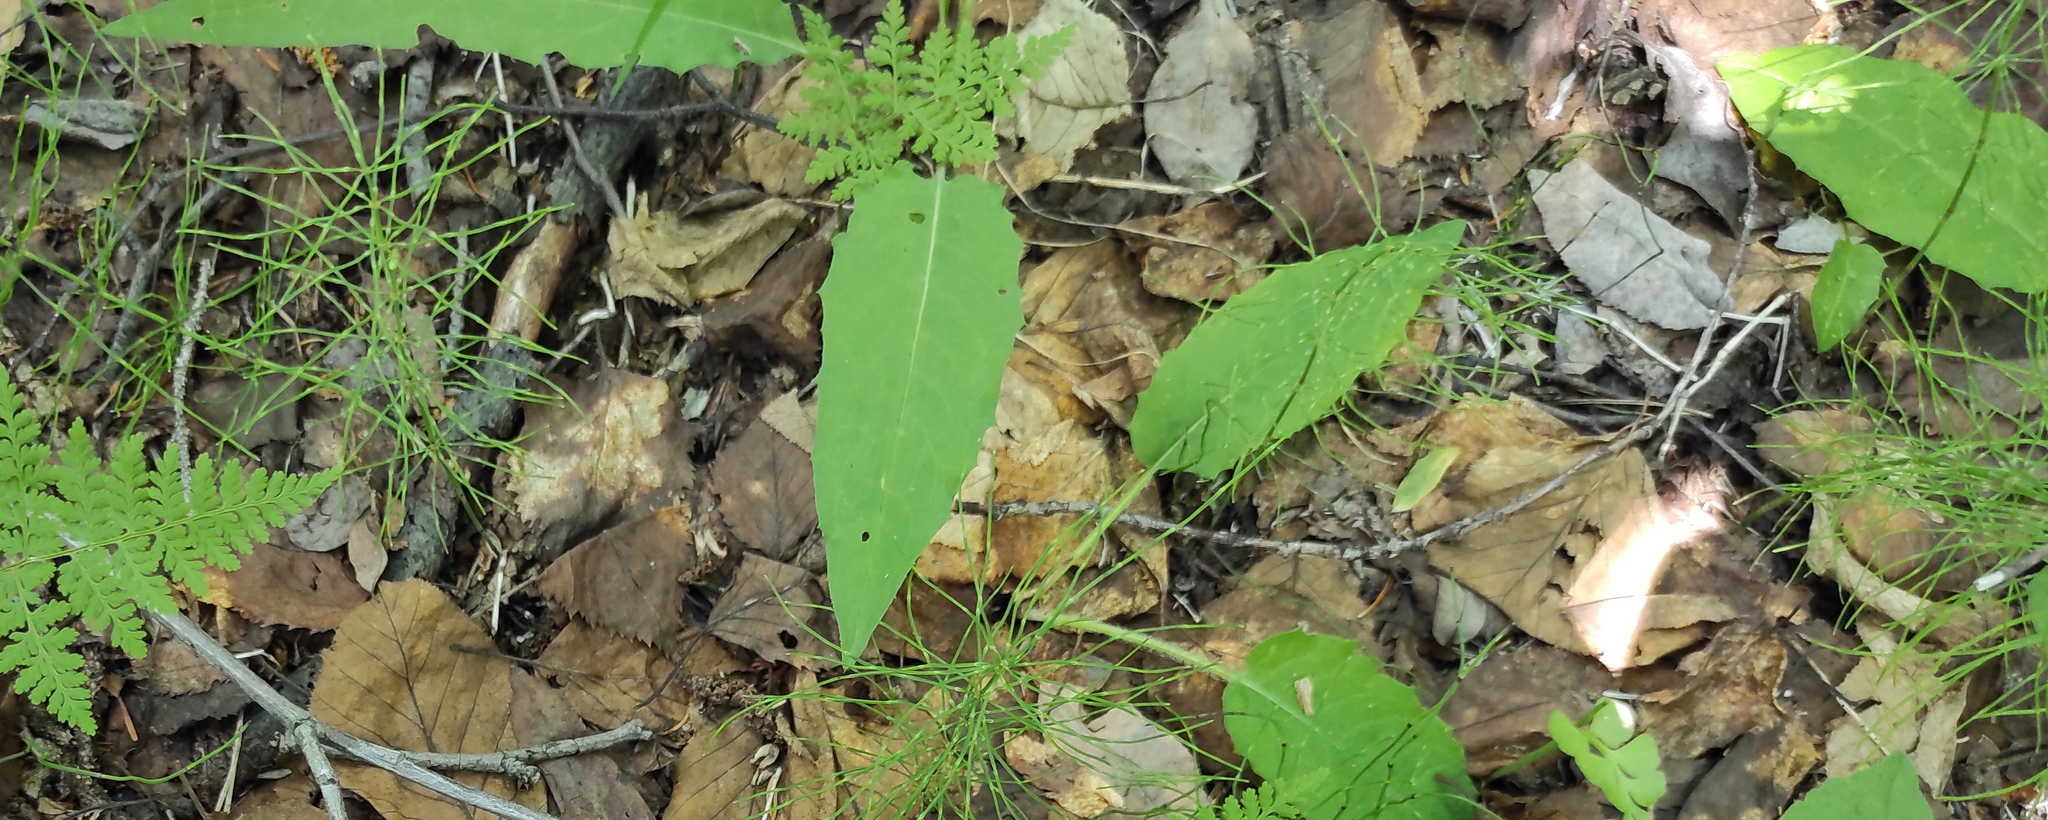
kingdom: Plantae
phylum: Tracheophyta
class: Polypodiopsida
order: Polypodiales
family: Cystopteridaceae
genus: Cystopteris
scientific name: Cystopteris montana
